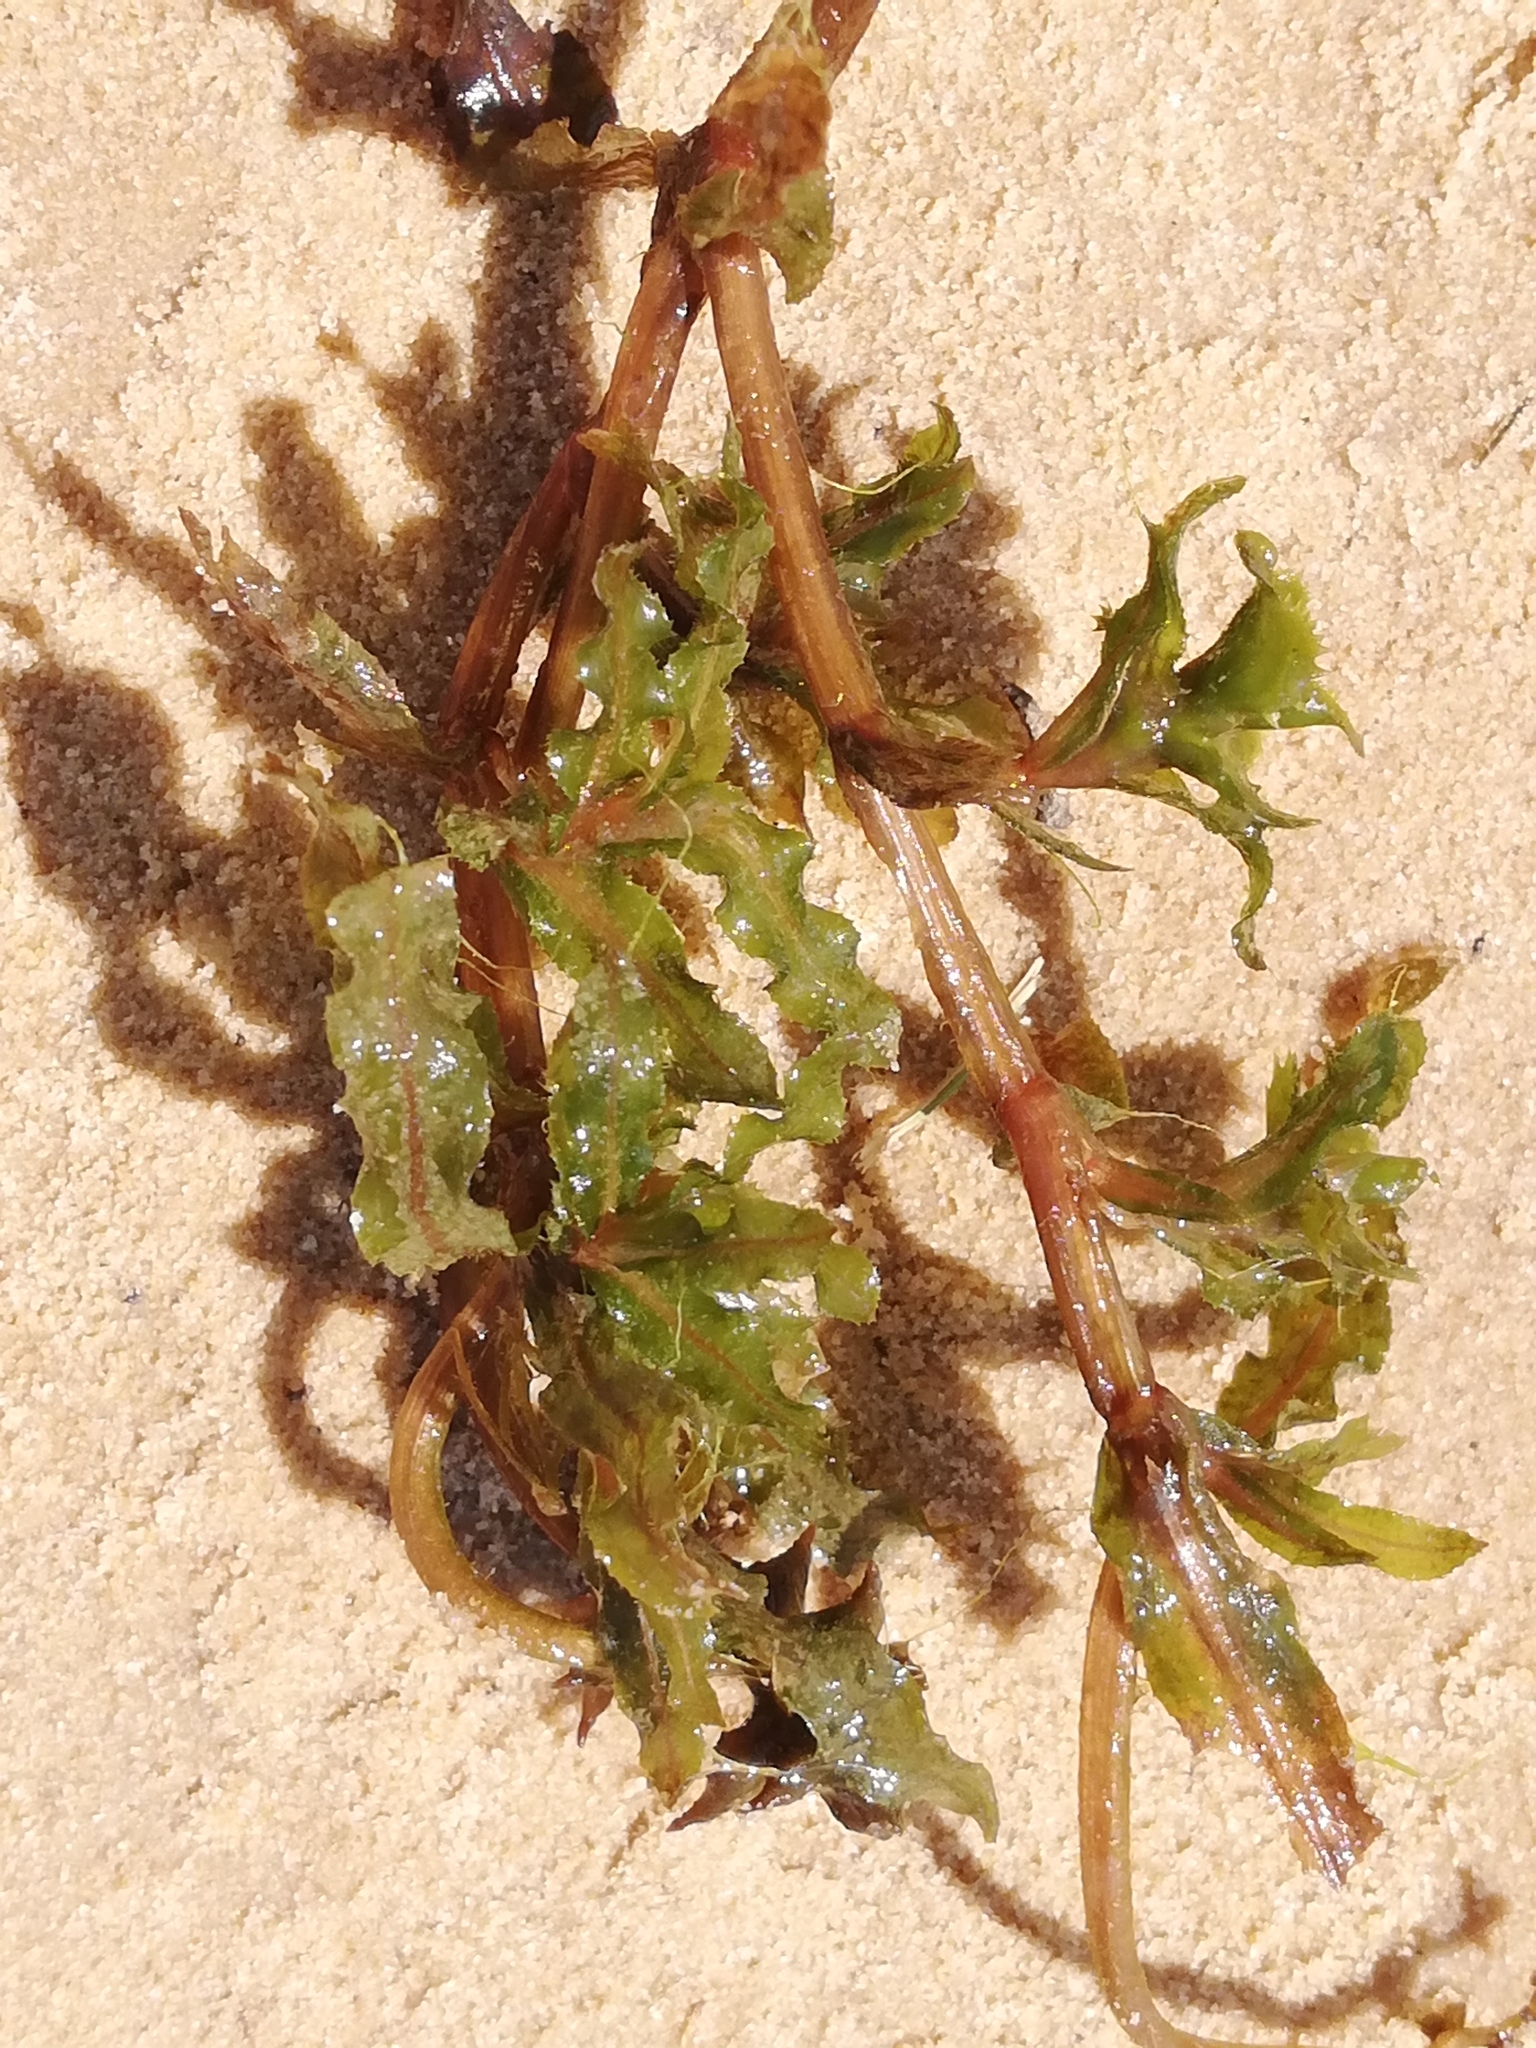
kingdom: Plantae
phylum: Tracheophyta
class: Liliopsida
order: Alismatales
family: Potamogetonaceae
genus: Potamogeton
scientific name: Potamogeton crispus
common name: Curled pondweed
